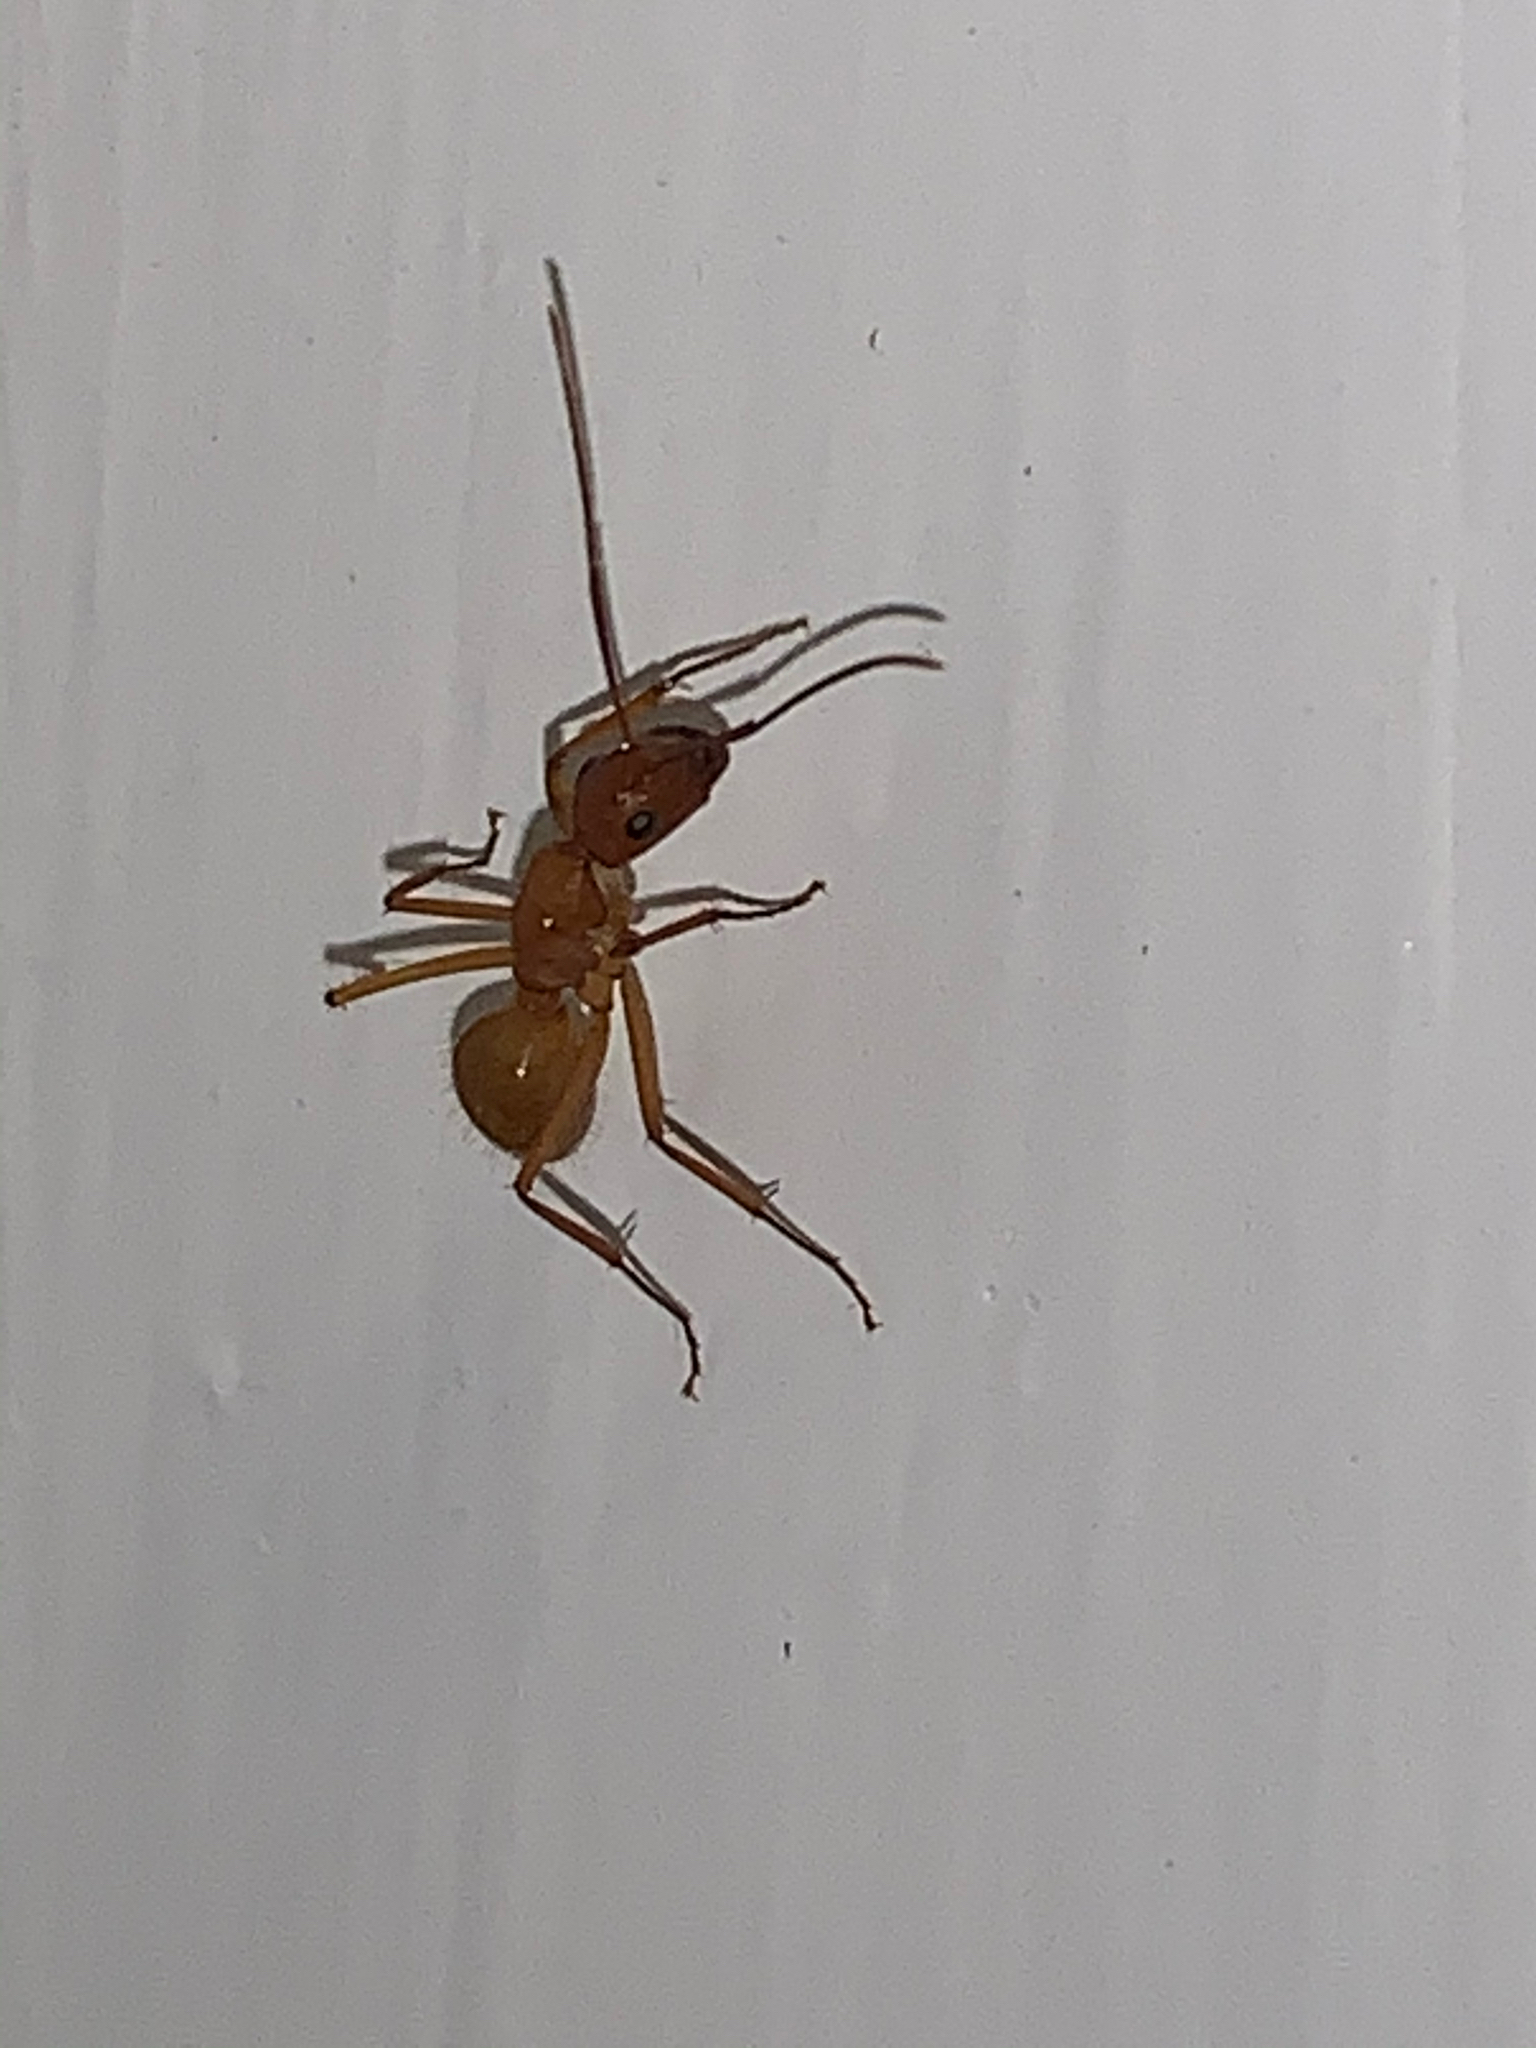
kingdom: Animalia
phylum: Arthropoda
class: Insecta
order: Hymenoptera
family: Formicidae
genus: Camponotus
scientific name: Camponotus castaneus
